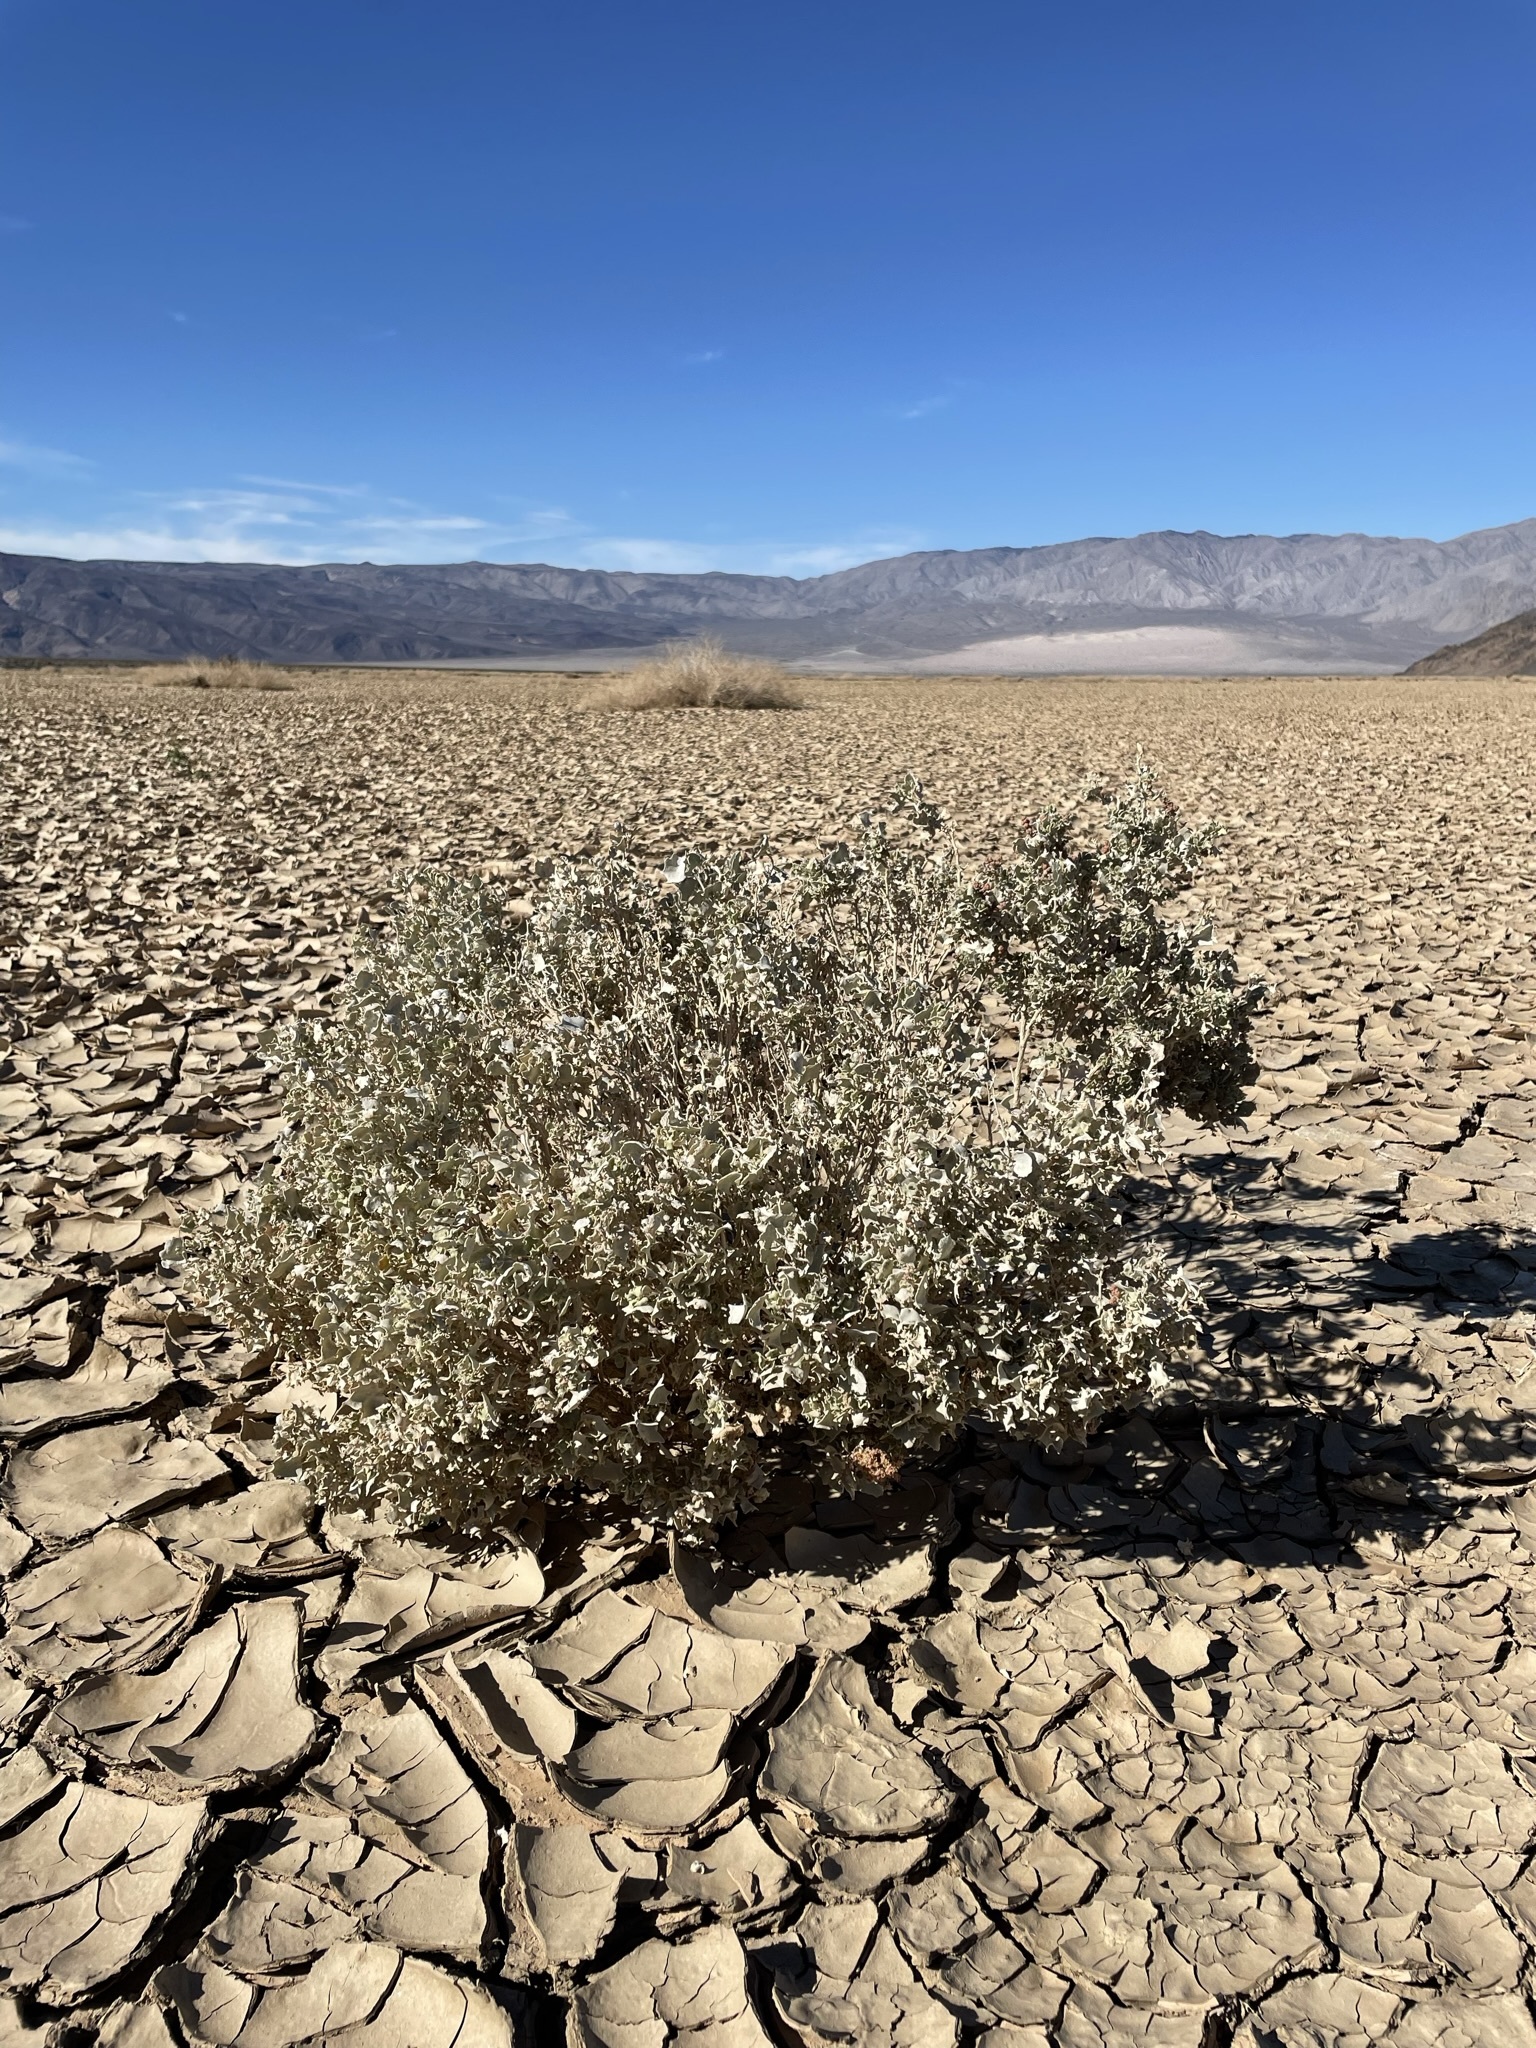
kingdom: Plantae
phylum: Tracheophyta
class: Magnoliopsida
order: Caryophyllales
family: Amaranthaceae
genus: Atriplex
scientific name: Atriplex hymenelytra
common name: Desert-holly
